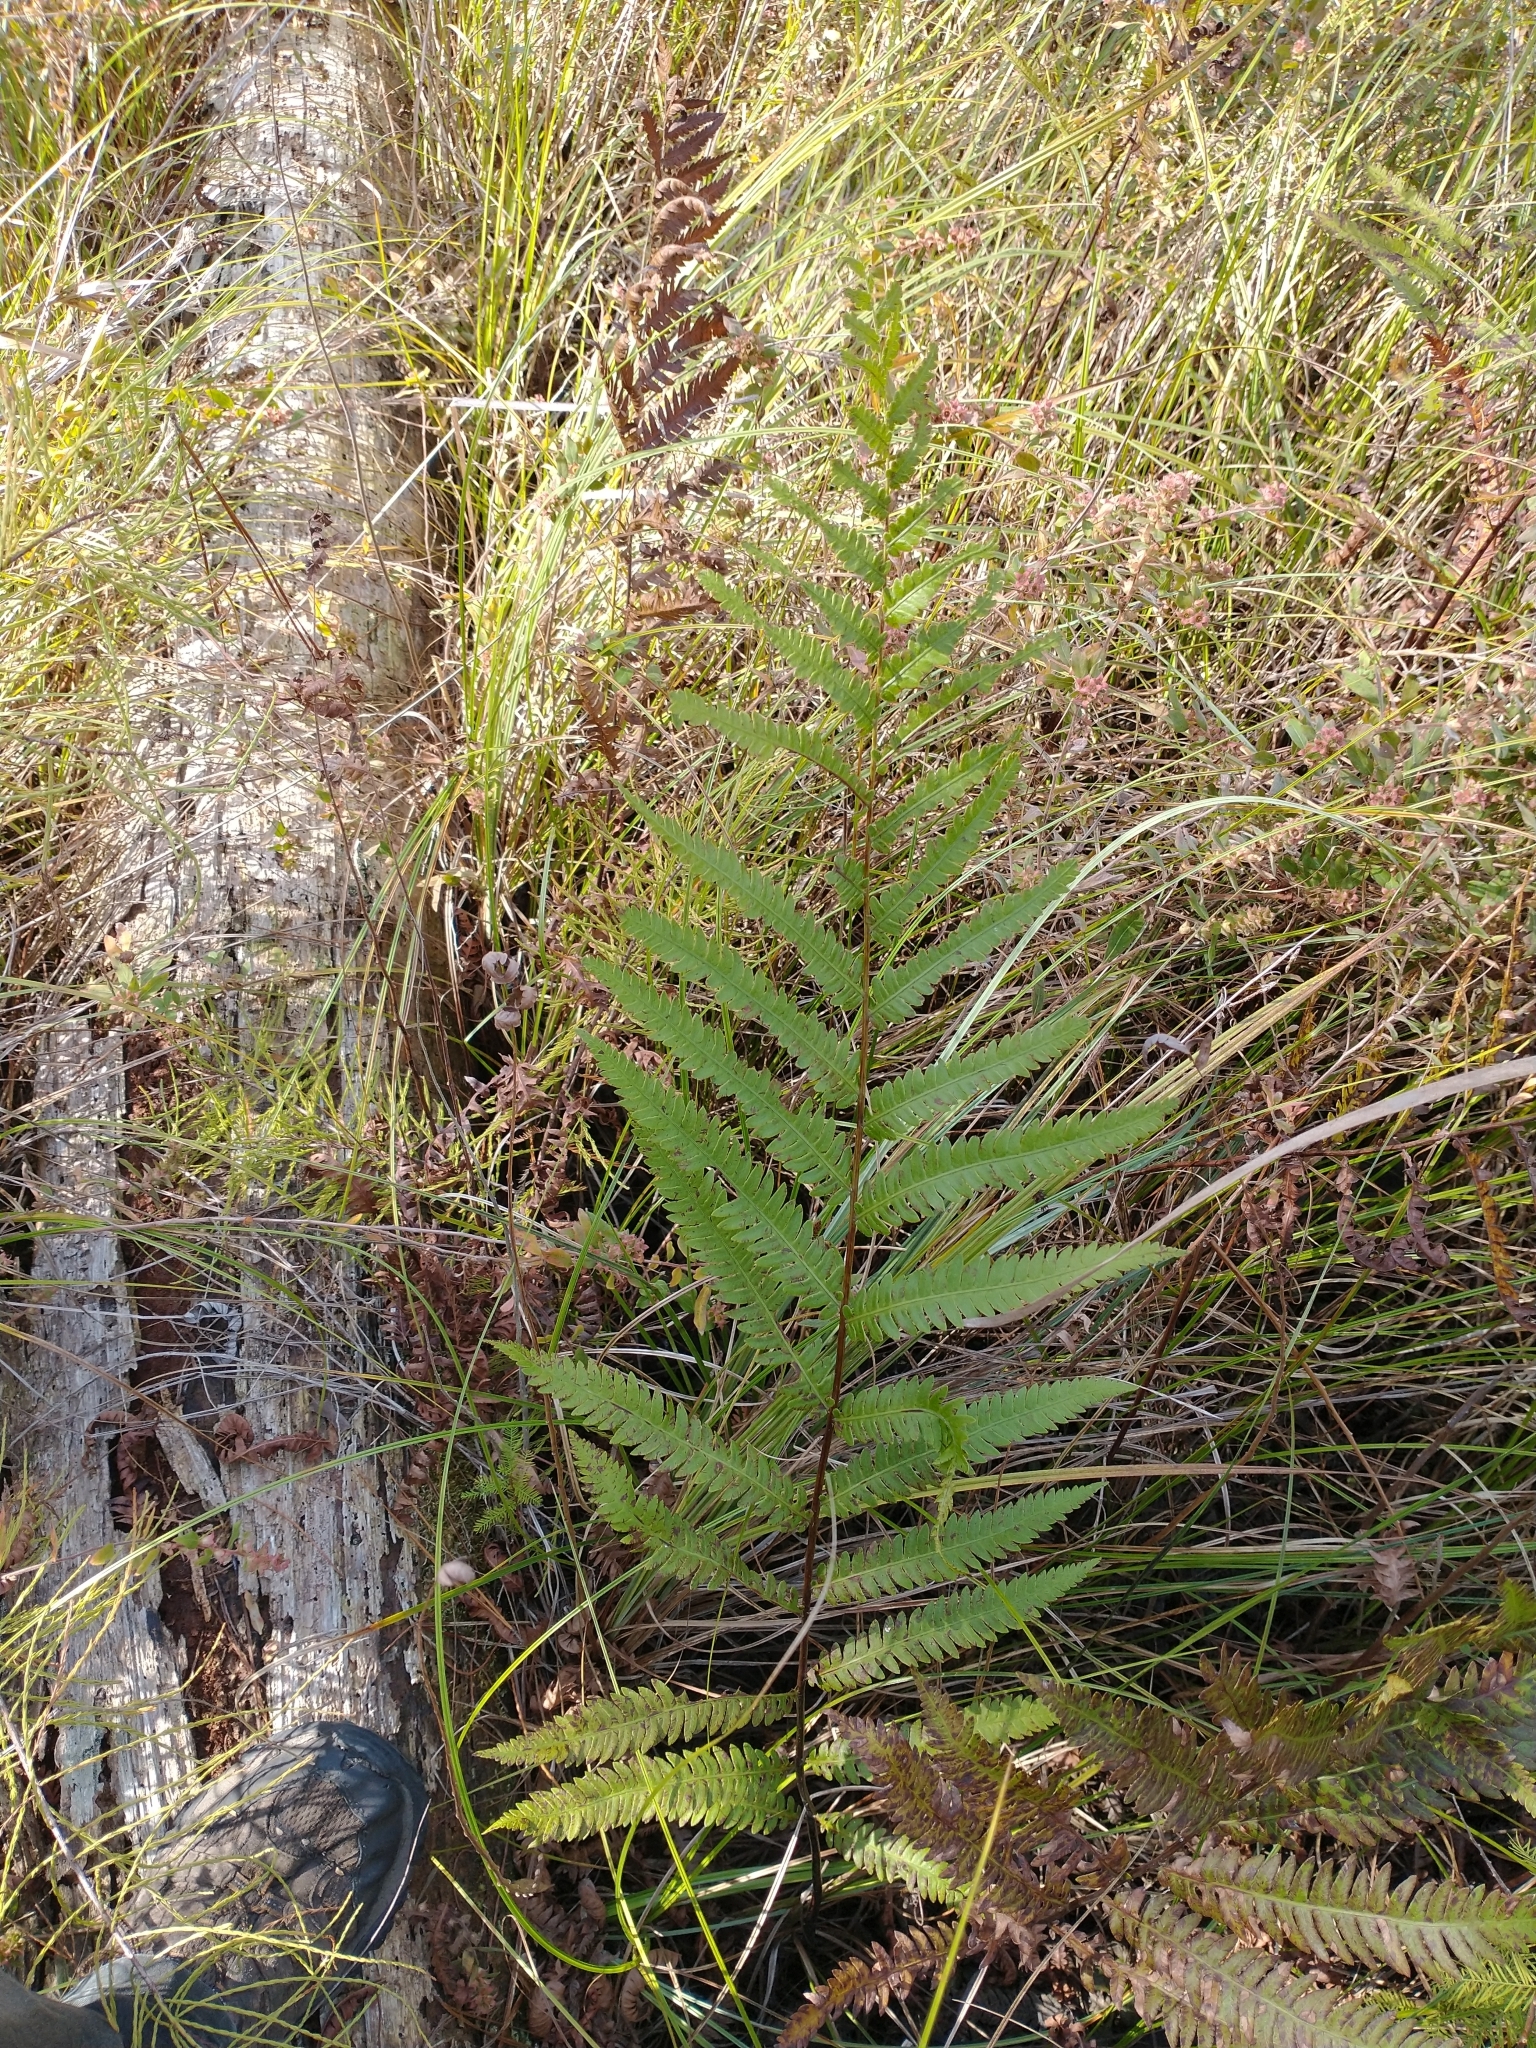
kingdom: Plantae
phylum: Tracheophyta
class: Polypodiopsida
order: Polypodiales
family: Blechnaceae
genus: Anchistea
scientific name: Anchistea virginica
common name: Virginia chain fern
